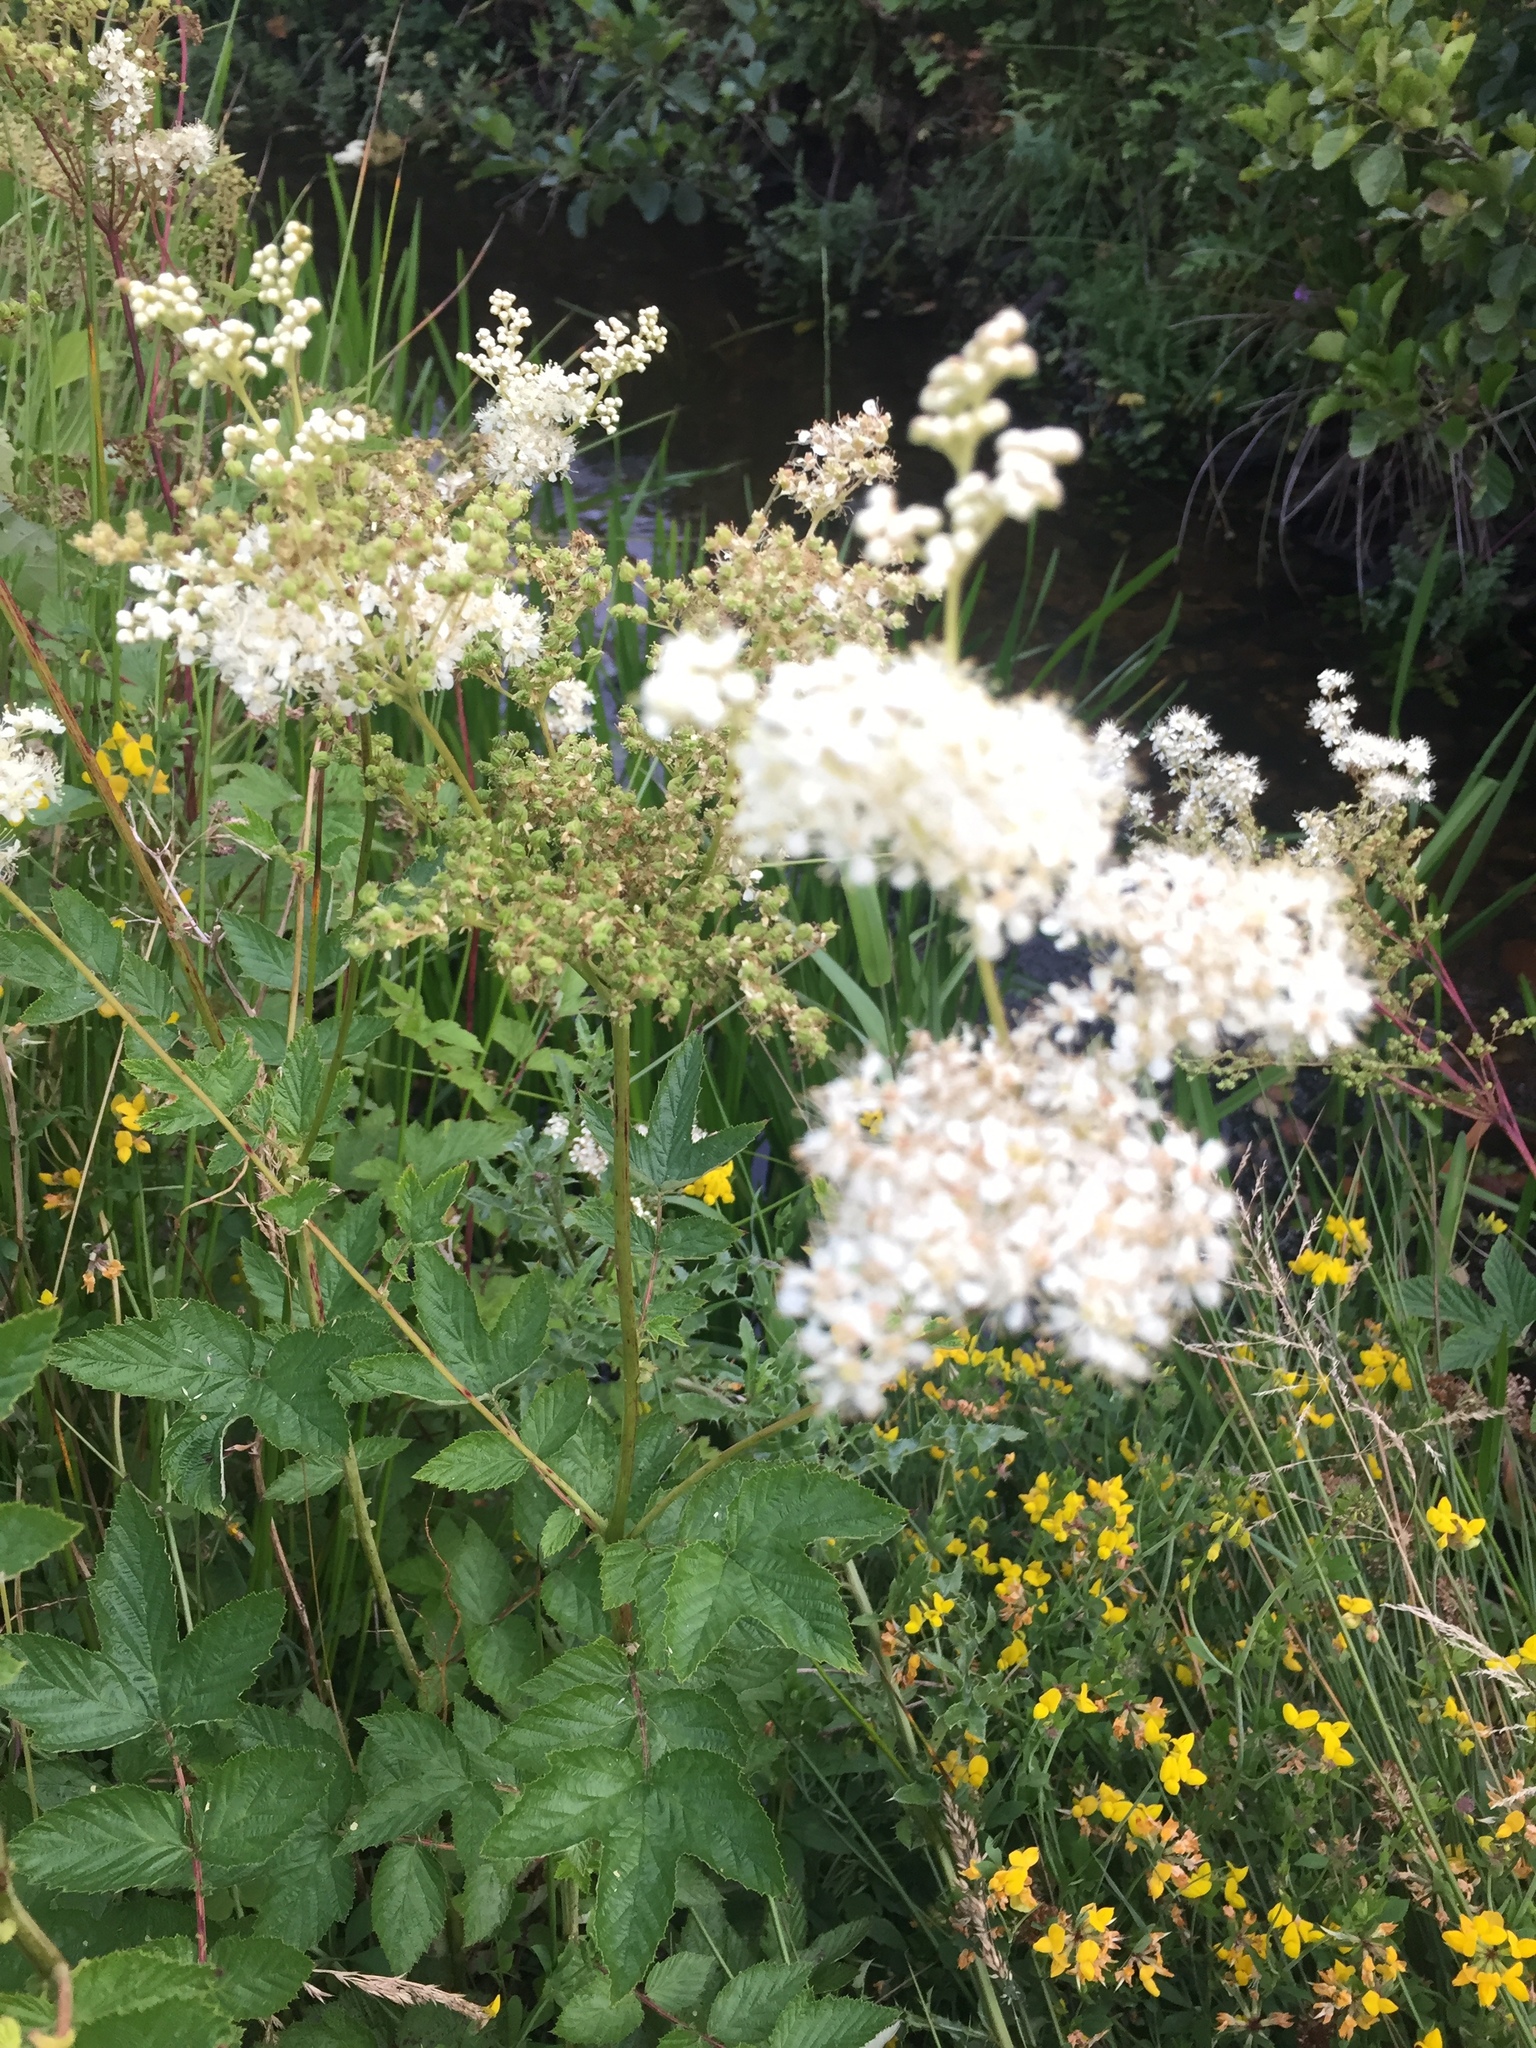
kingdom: Plantae
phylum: Tracheophyta
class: Magnoliopsida
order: Rosales
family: Rosaceae
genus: Filipendula
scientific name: Filipendula ulmaria
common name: Meadowsweet
